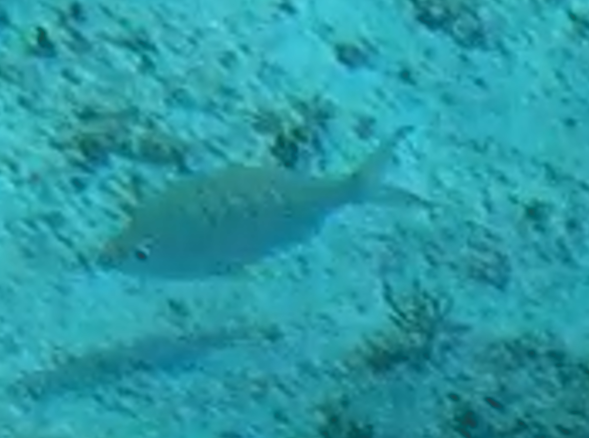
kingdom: Animalia
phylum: Chordata
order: Perciformes
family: Gerreidae
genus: Gerres
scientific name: Gerres cinereus
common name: Hedow
